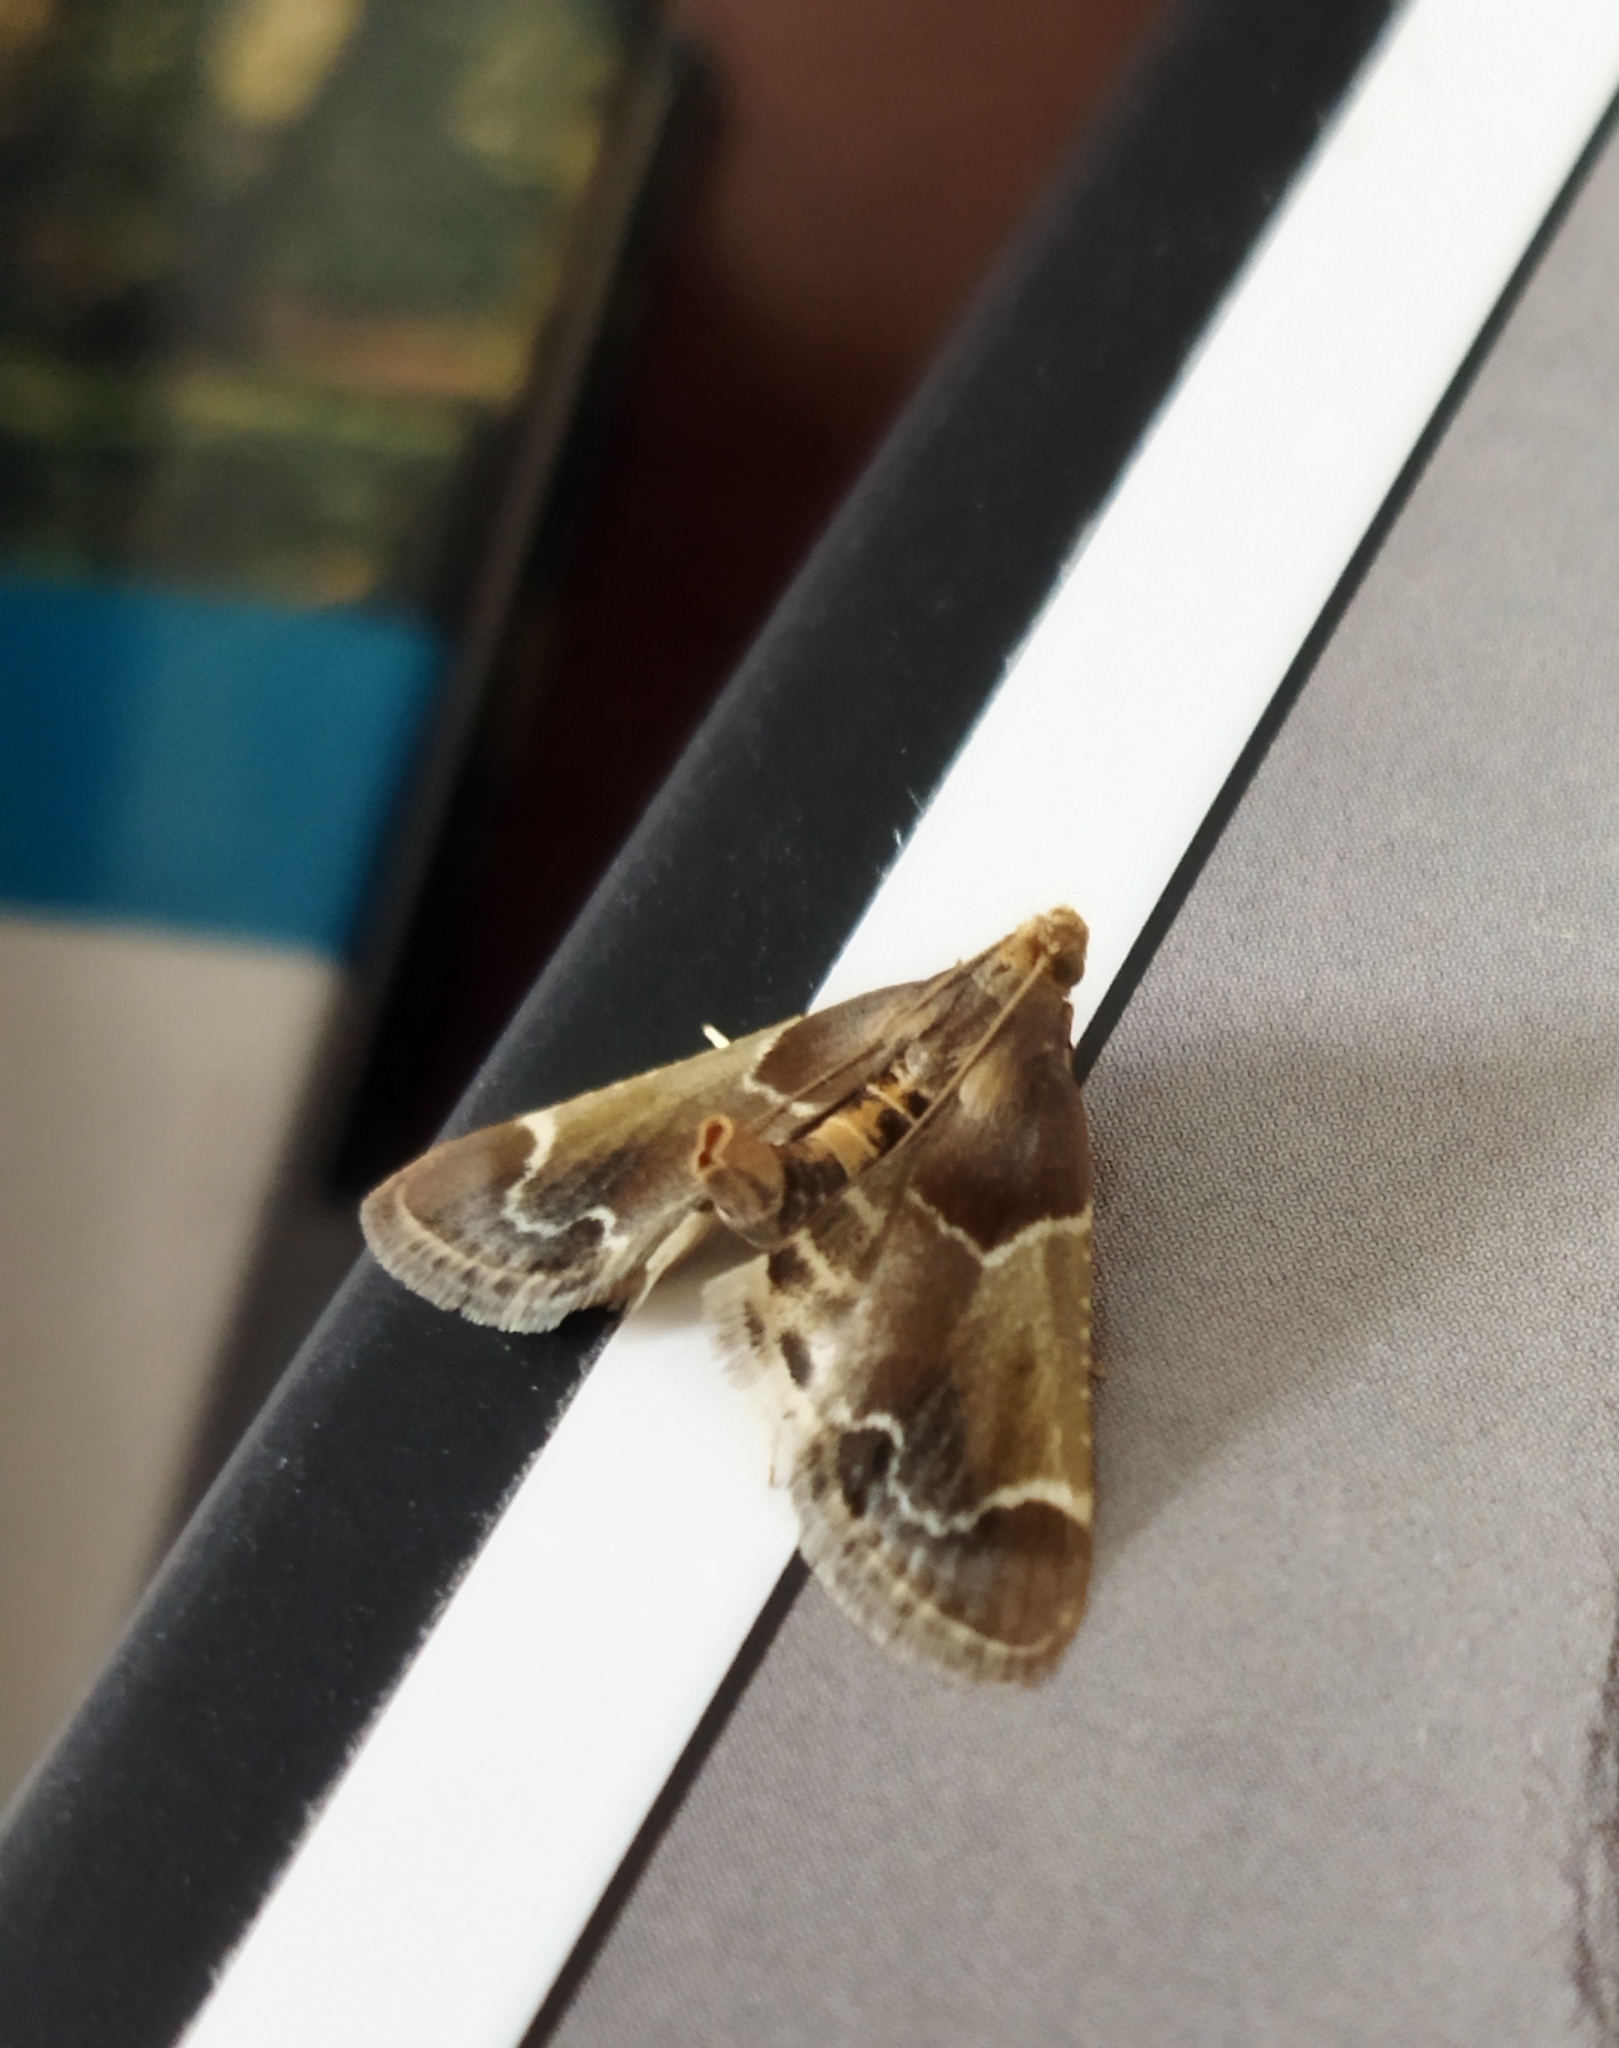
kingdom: Animalia
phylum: Arthropoda
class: Insecta
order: Lepidoptera
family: Pyralidae
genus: Pyralis
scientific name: Pyralis farinalis
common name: Meal moth
